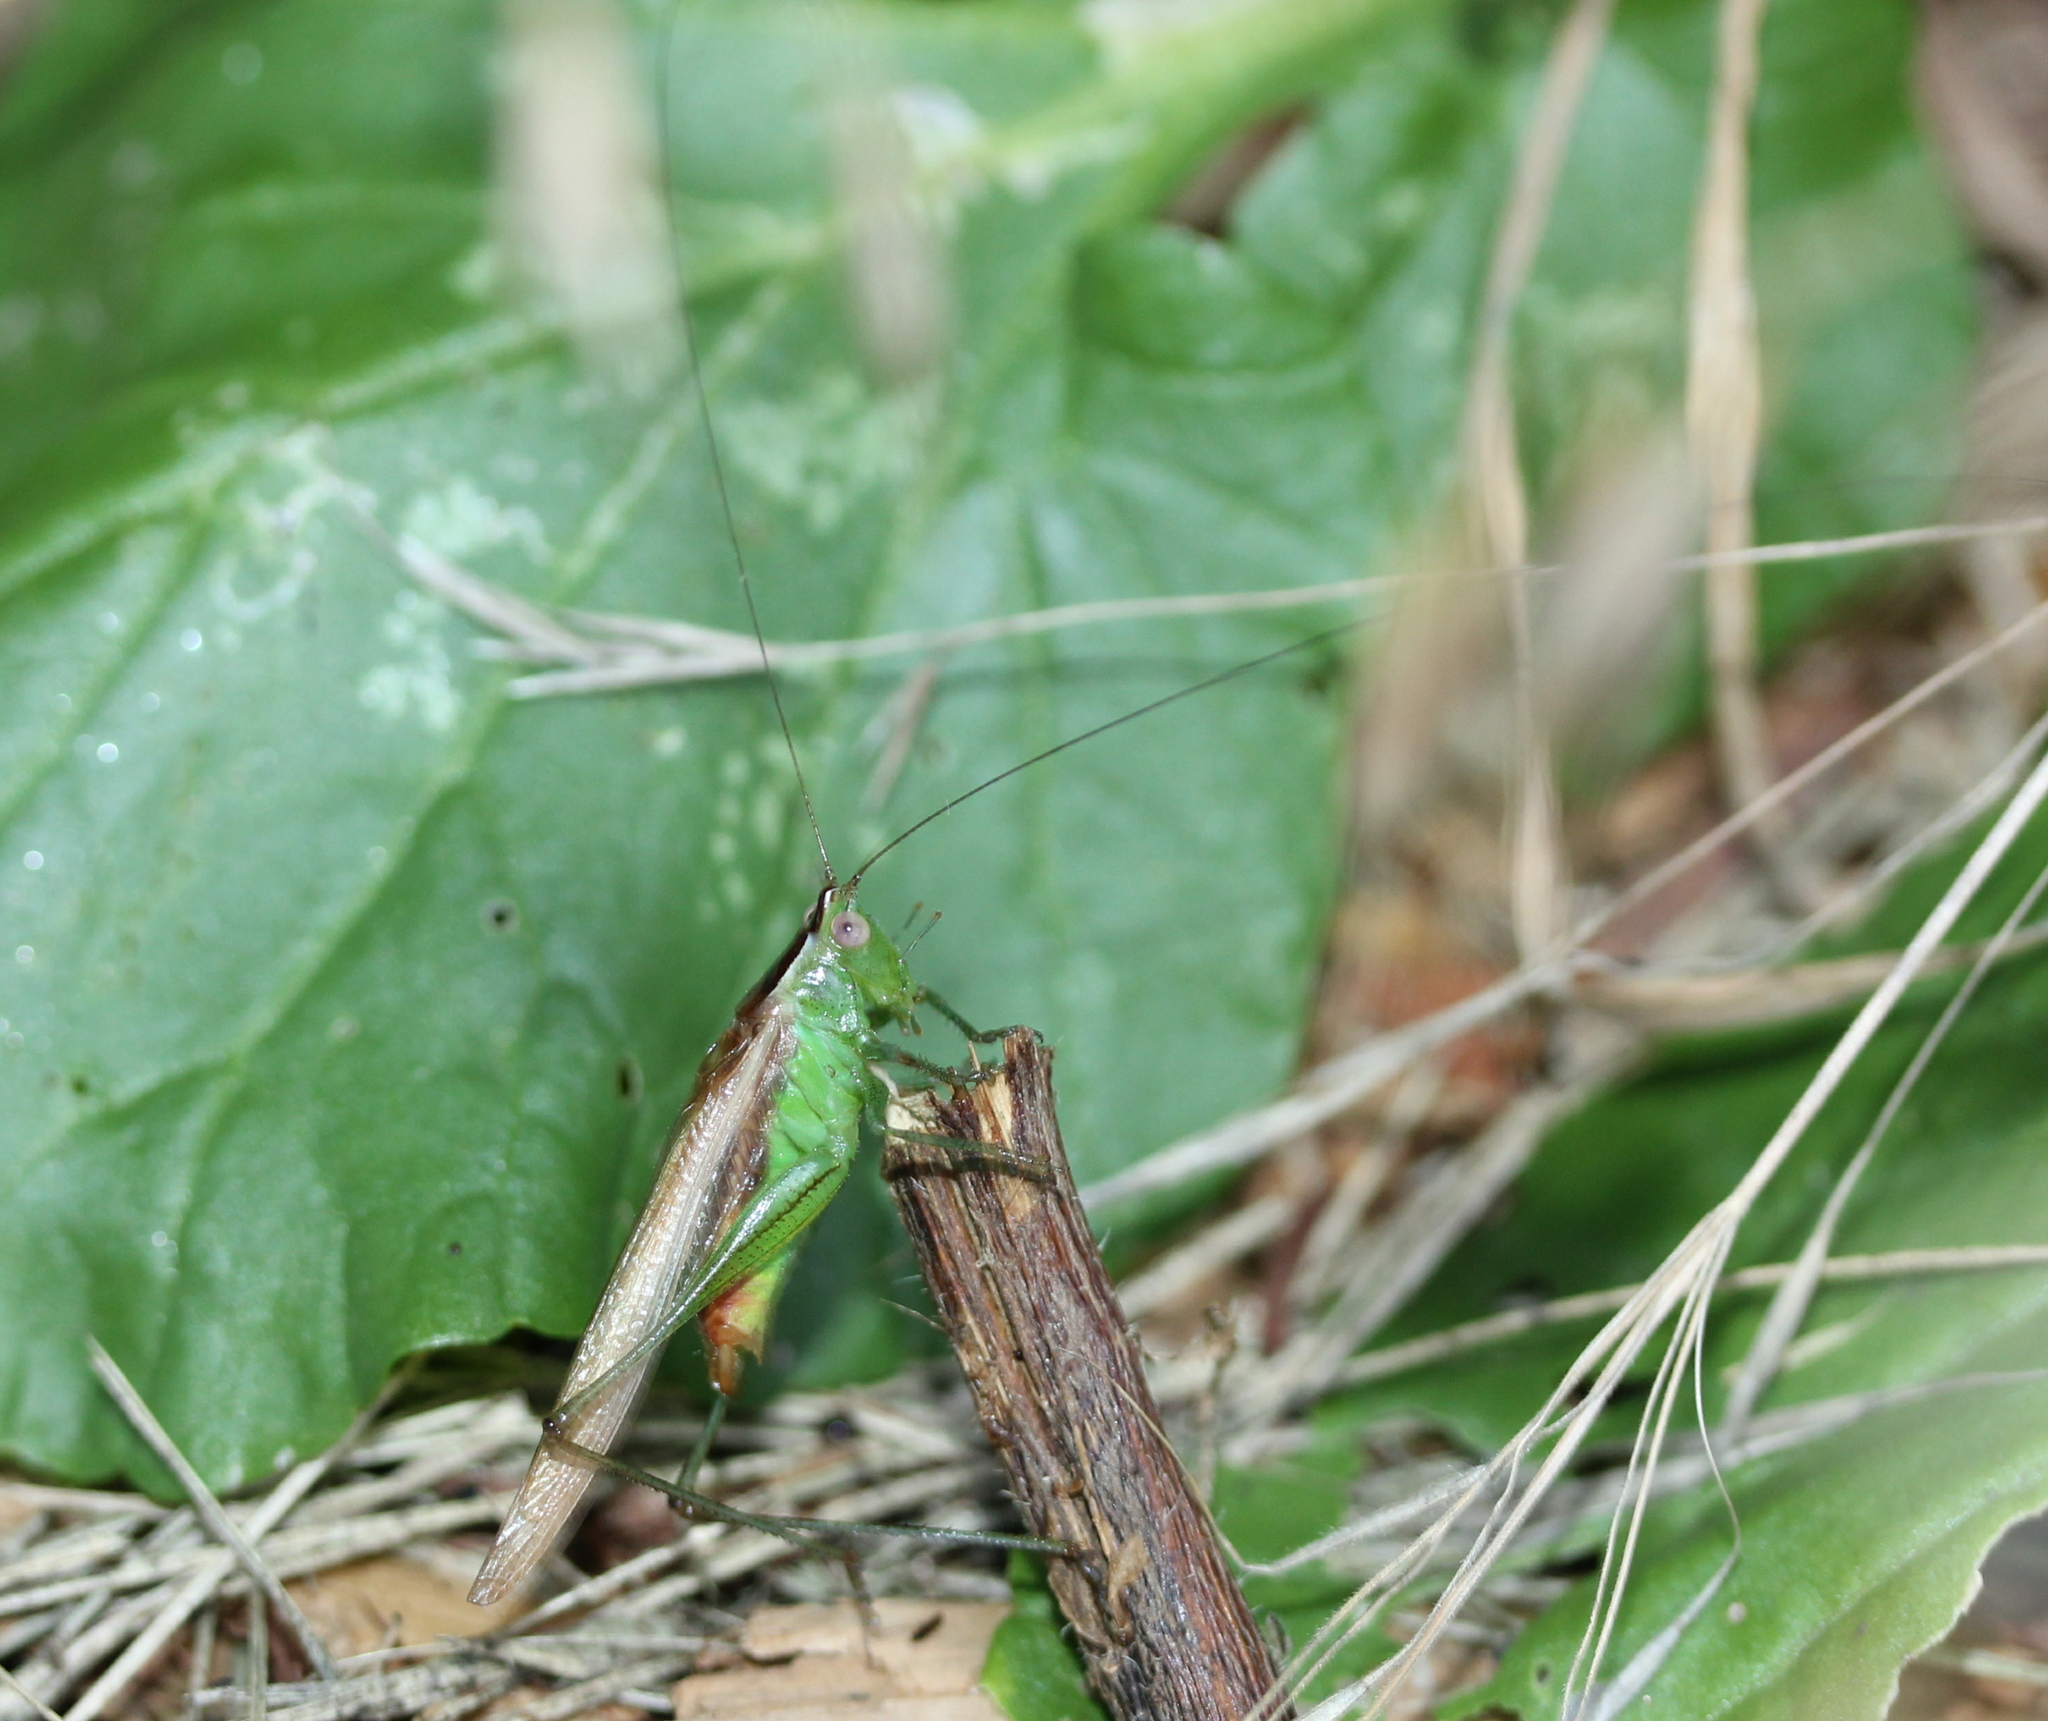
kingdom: Animalia
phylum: Arthropoda
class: Insecta
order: Orthoptera
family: Tettigoniidae
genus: Conocephalus
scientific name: Conocephalus brevipennis
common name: Short-winged meadow katydid
